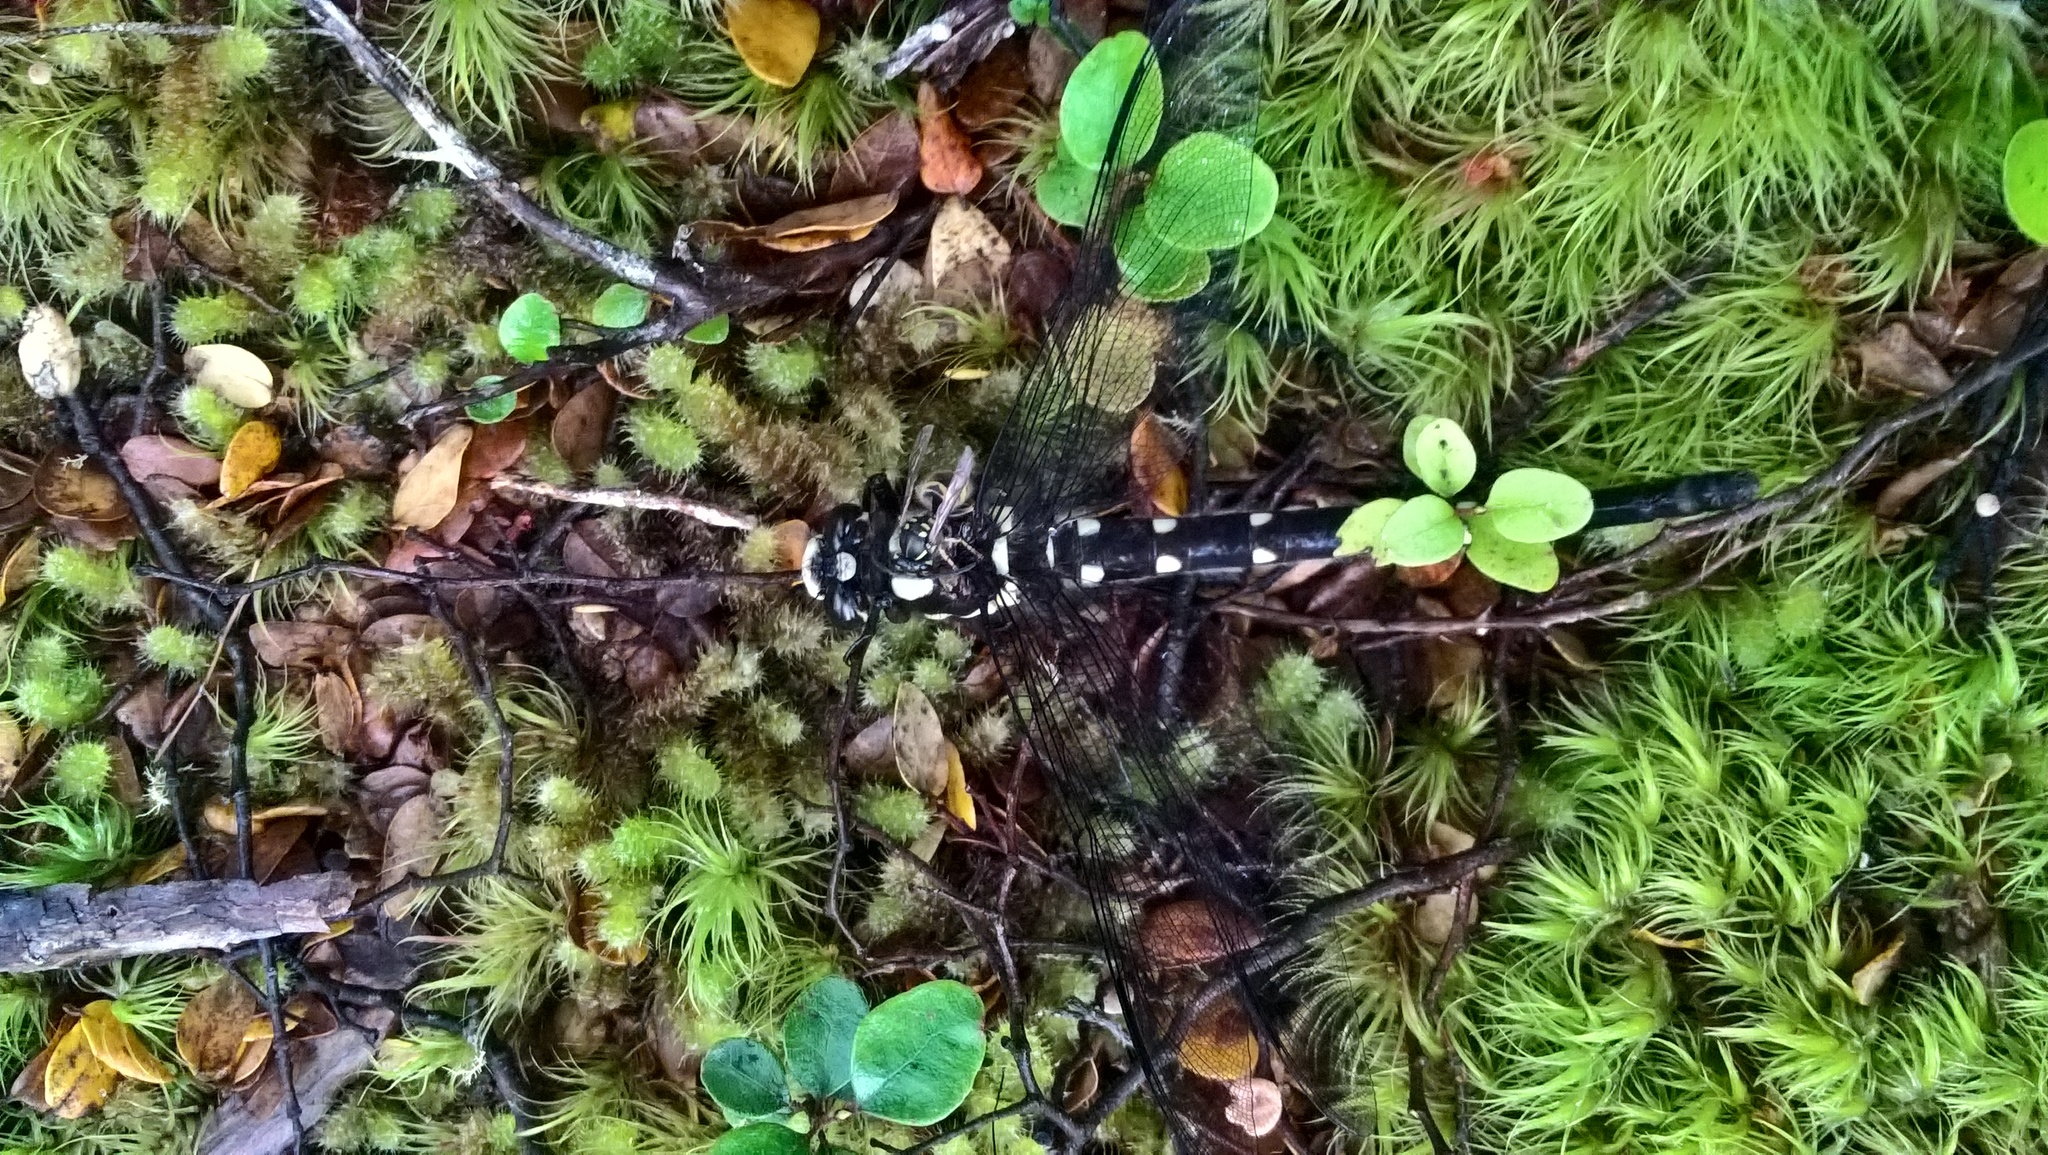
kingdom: Animalia
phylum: Arthropoda
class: Insecta
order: Odonata
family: Petaluridae
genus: Uropetala
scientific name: Uropetala carovei
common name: Bush giant dragonfly
